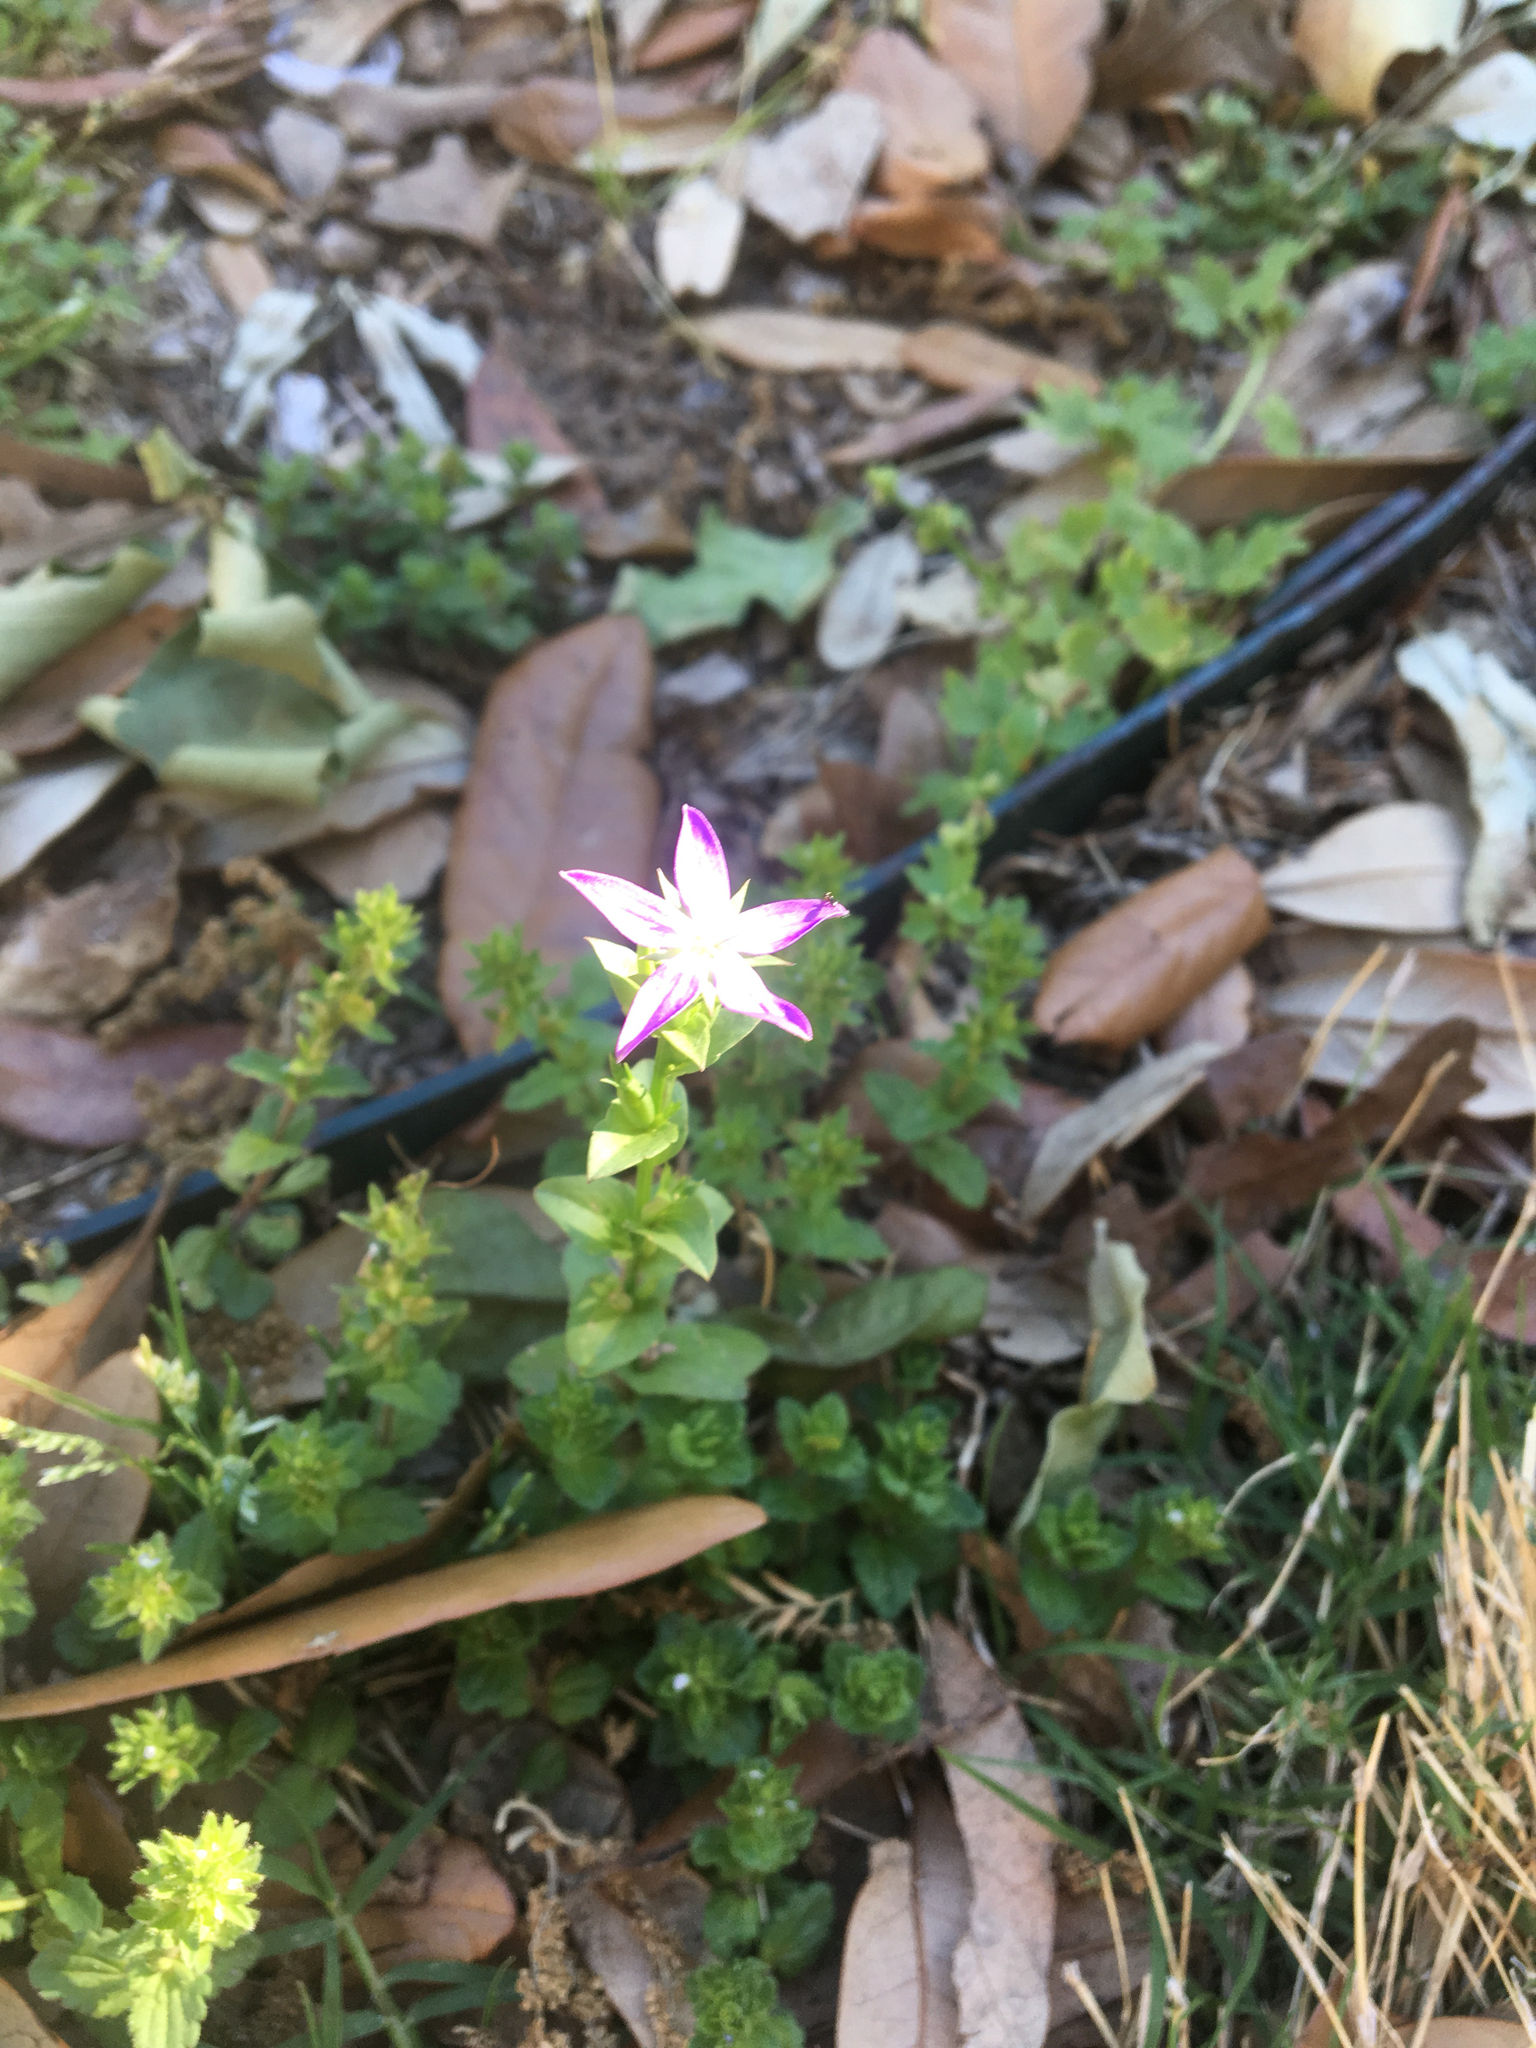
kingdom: Plantae
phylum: Tracheophyta
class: Magnoliopsida
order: Asterales
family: Campanulaceae
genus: Triodanis
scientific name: Triodanis perfoliata
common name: Clasping venus' looking-glass
